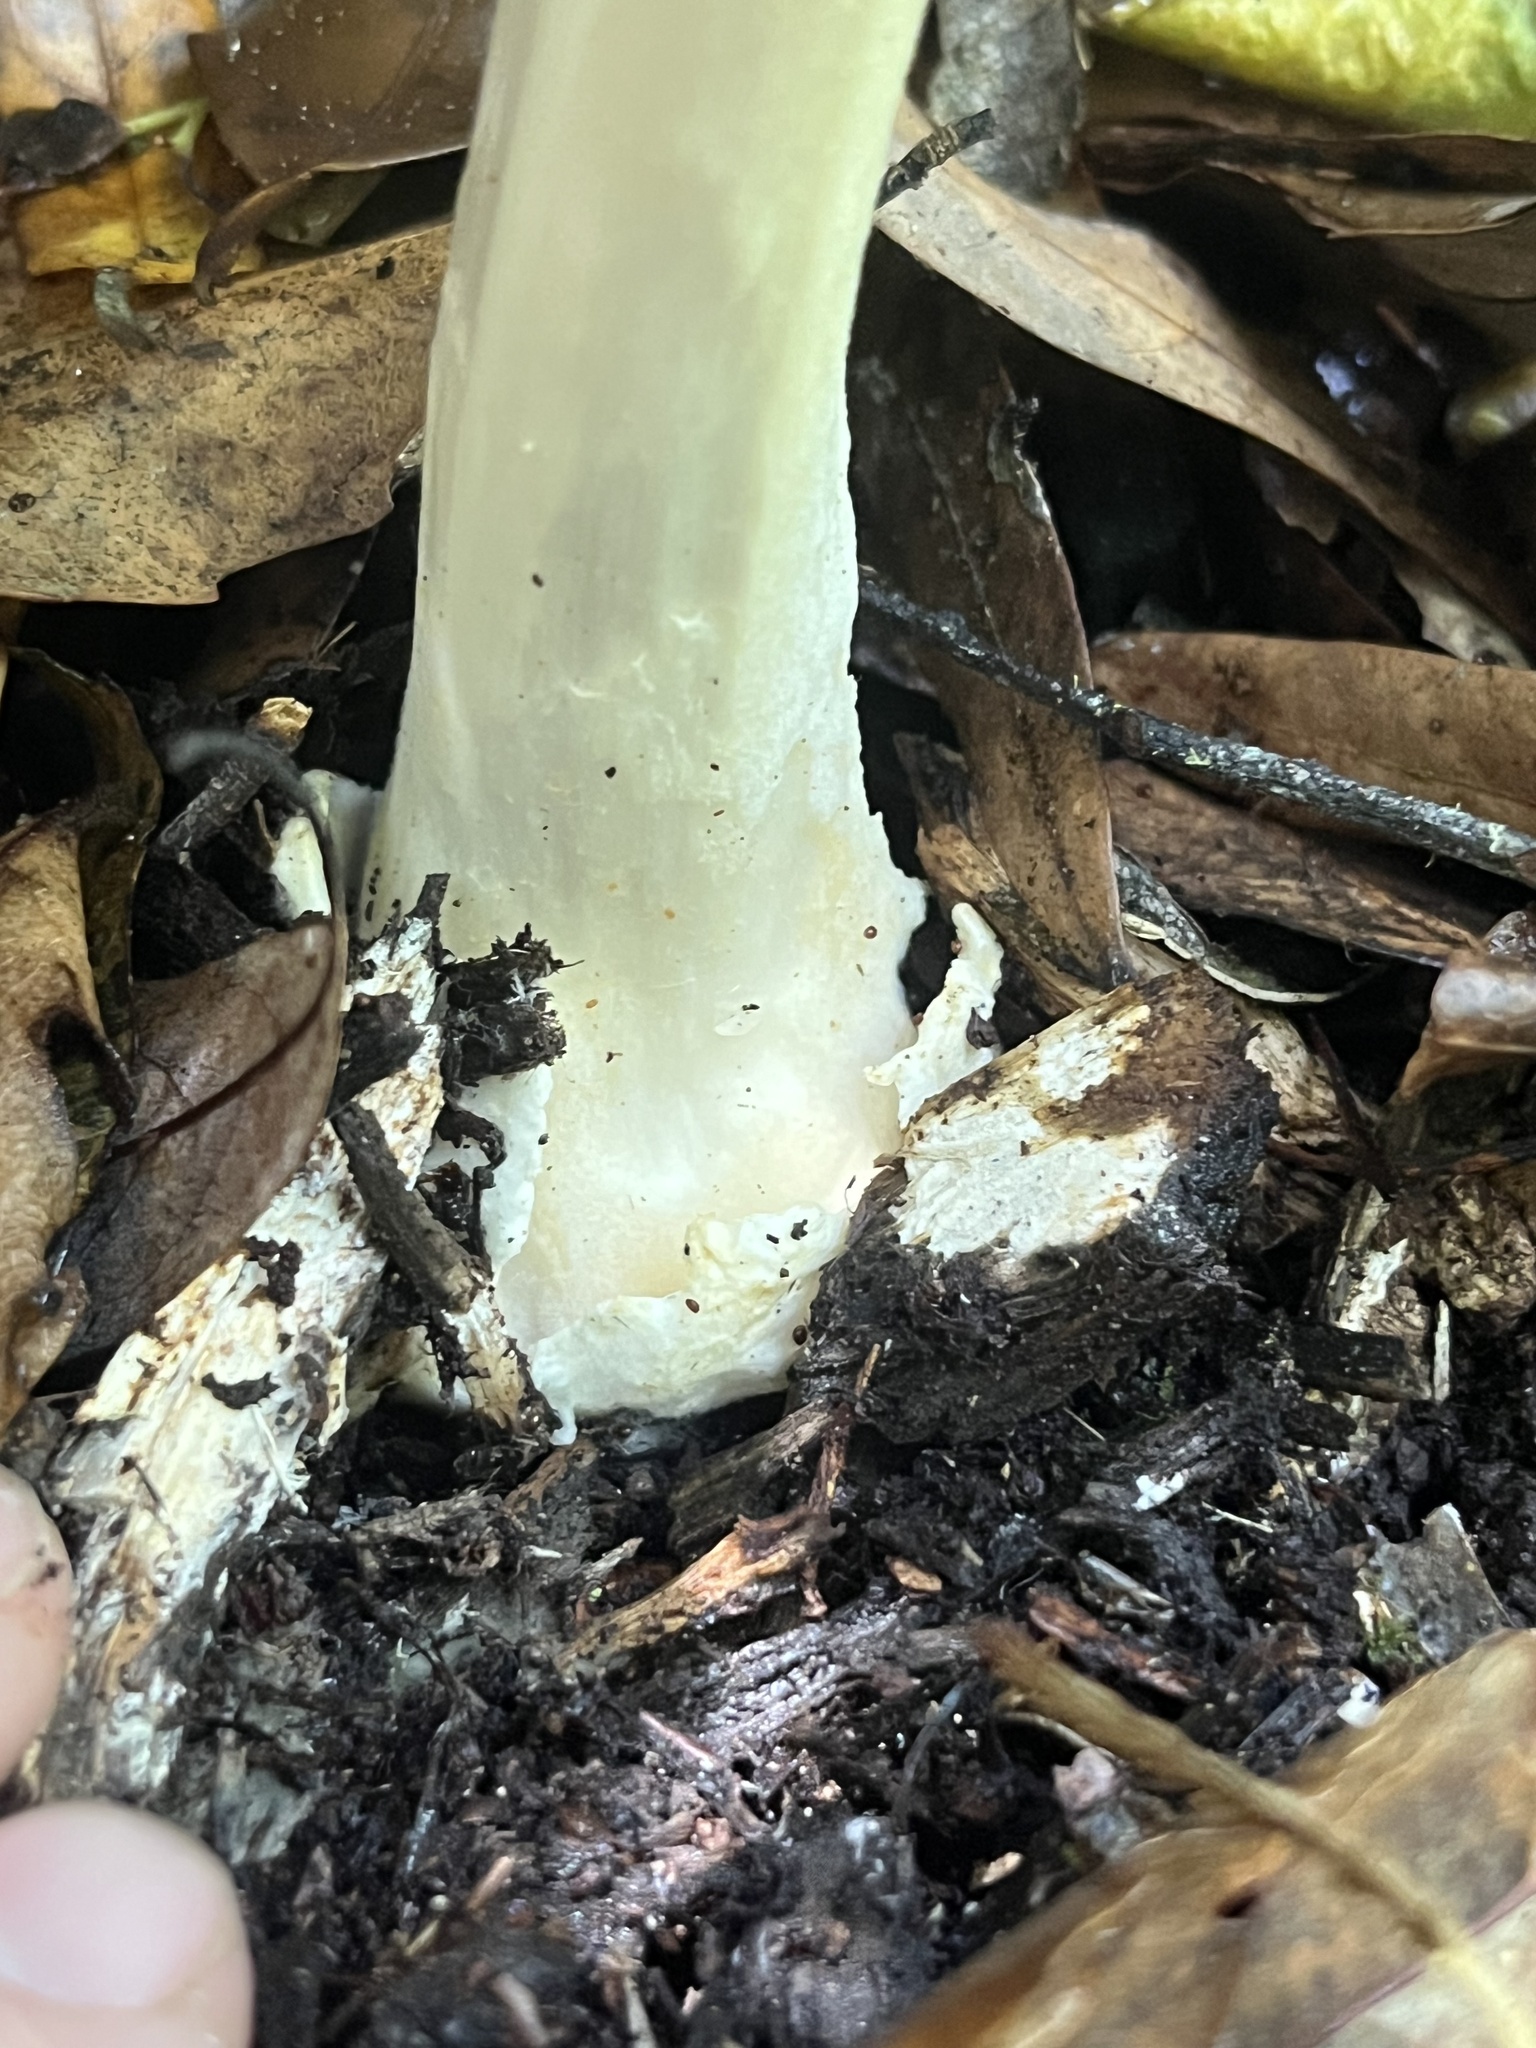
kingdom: Fungi
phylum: Basidiomycota
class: Agaricomycetes
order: Agaricales
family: Pluteaceae
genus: Volvopluteus
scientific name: Volvopluteus gloiocephalus
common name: Stubble rosegill
